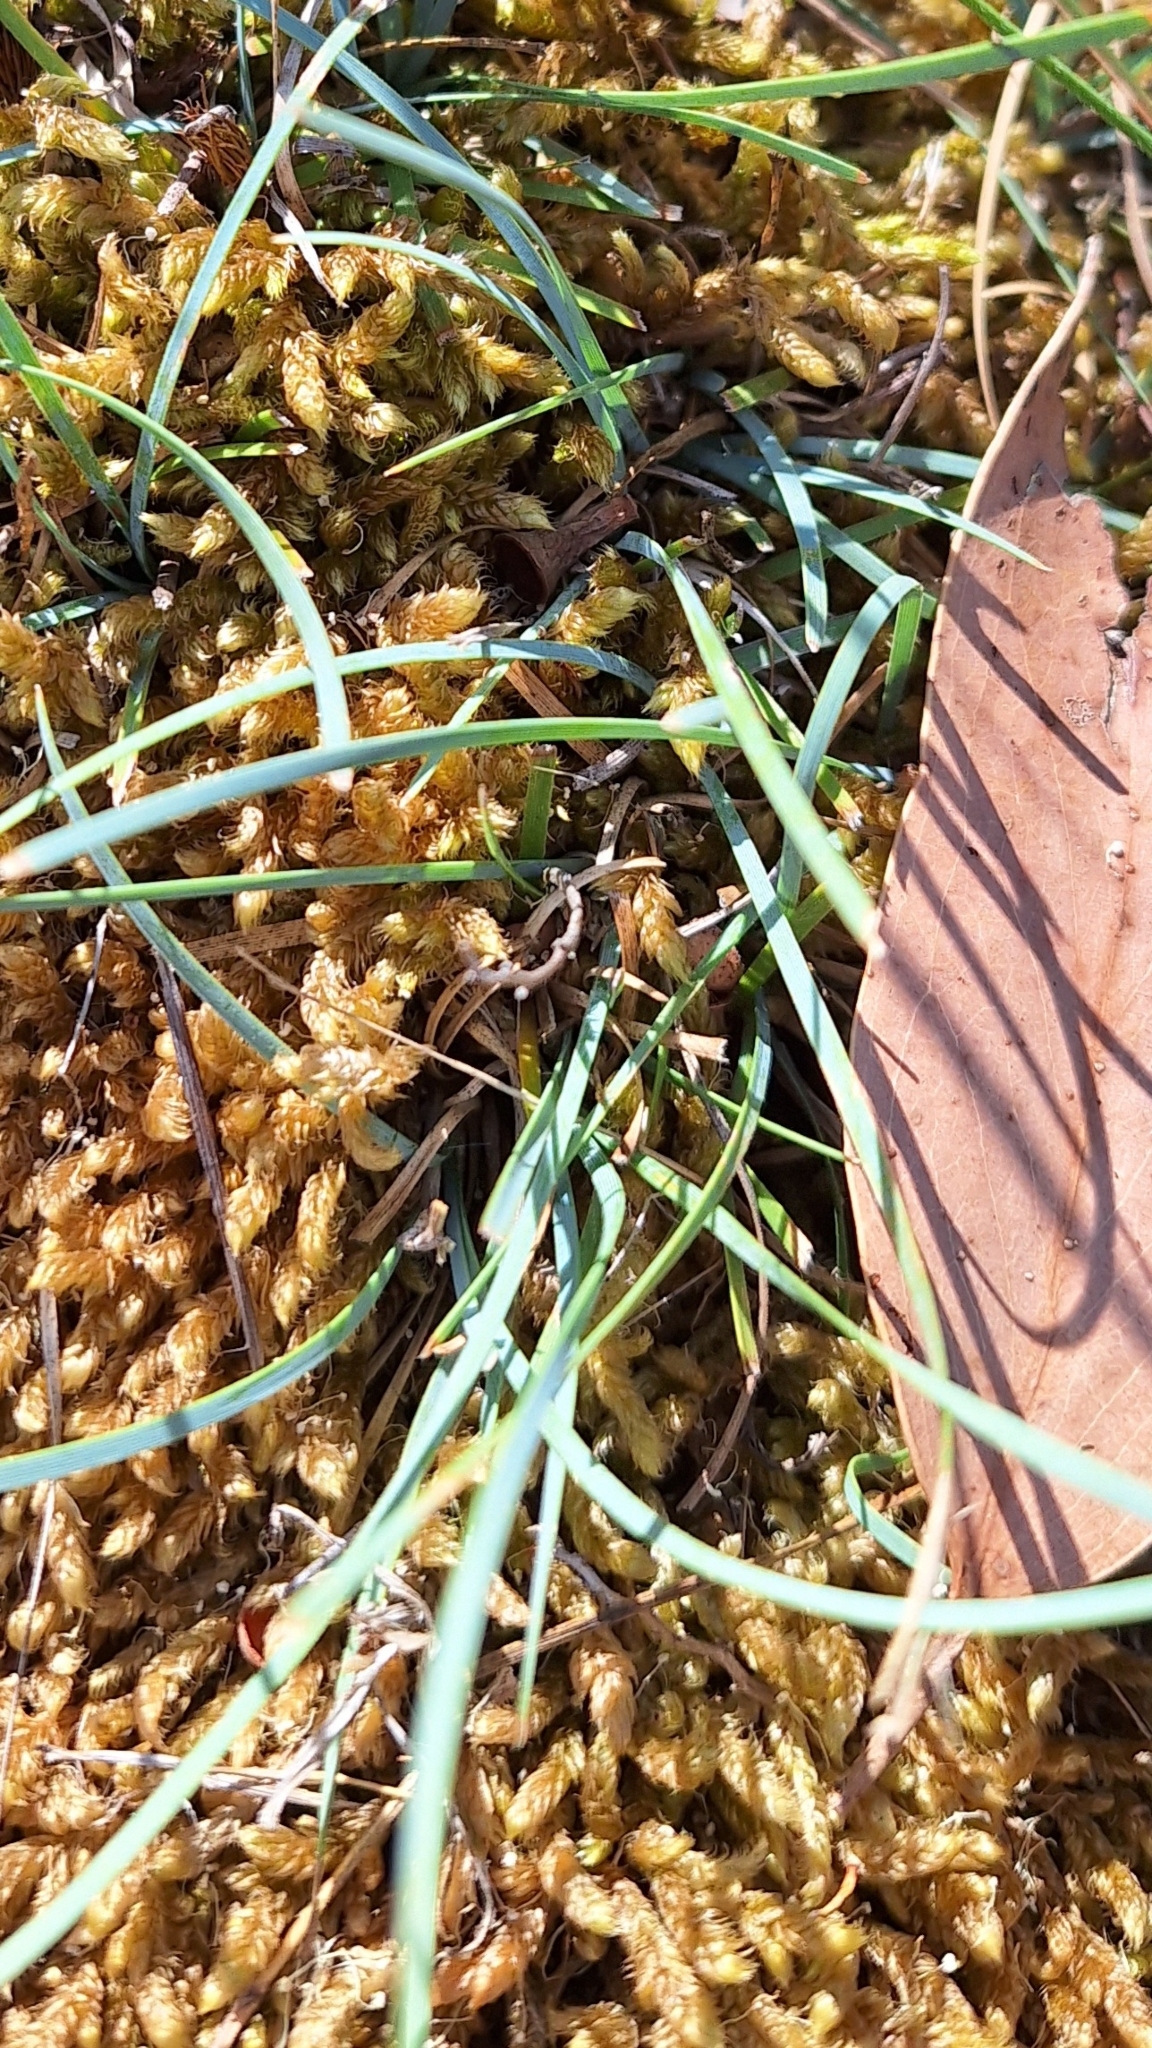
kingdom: Plantae
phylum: Tracheophyta
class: Liliopsida
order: Asparagales
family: Asparagaceae
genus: Lomandra
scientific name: Lomandra nana
